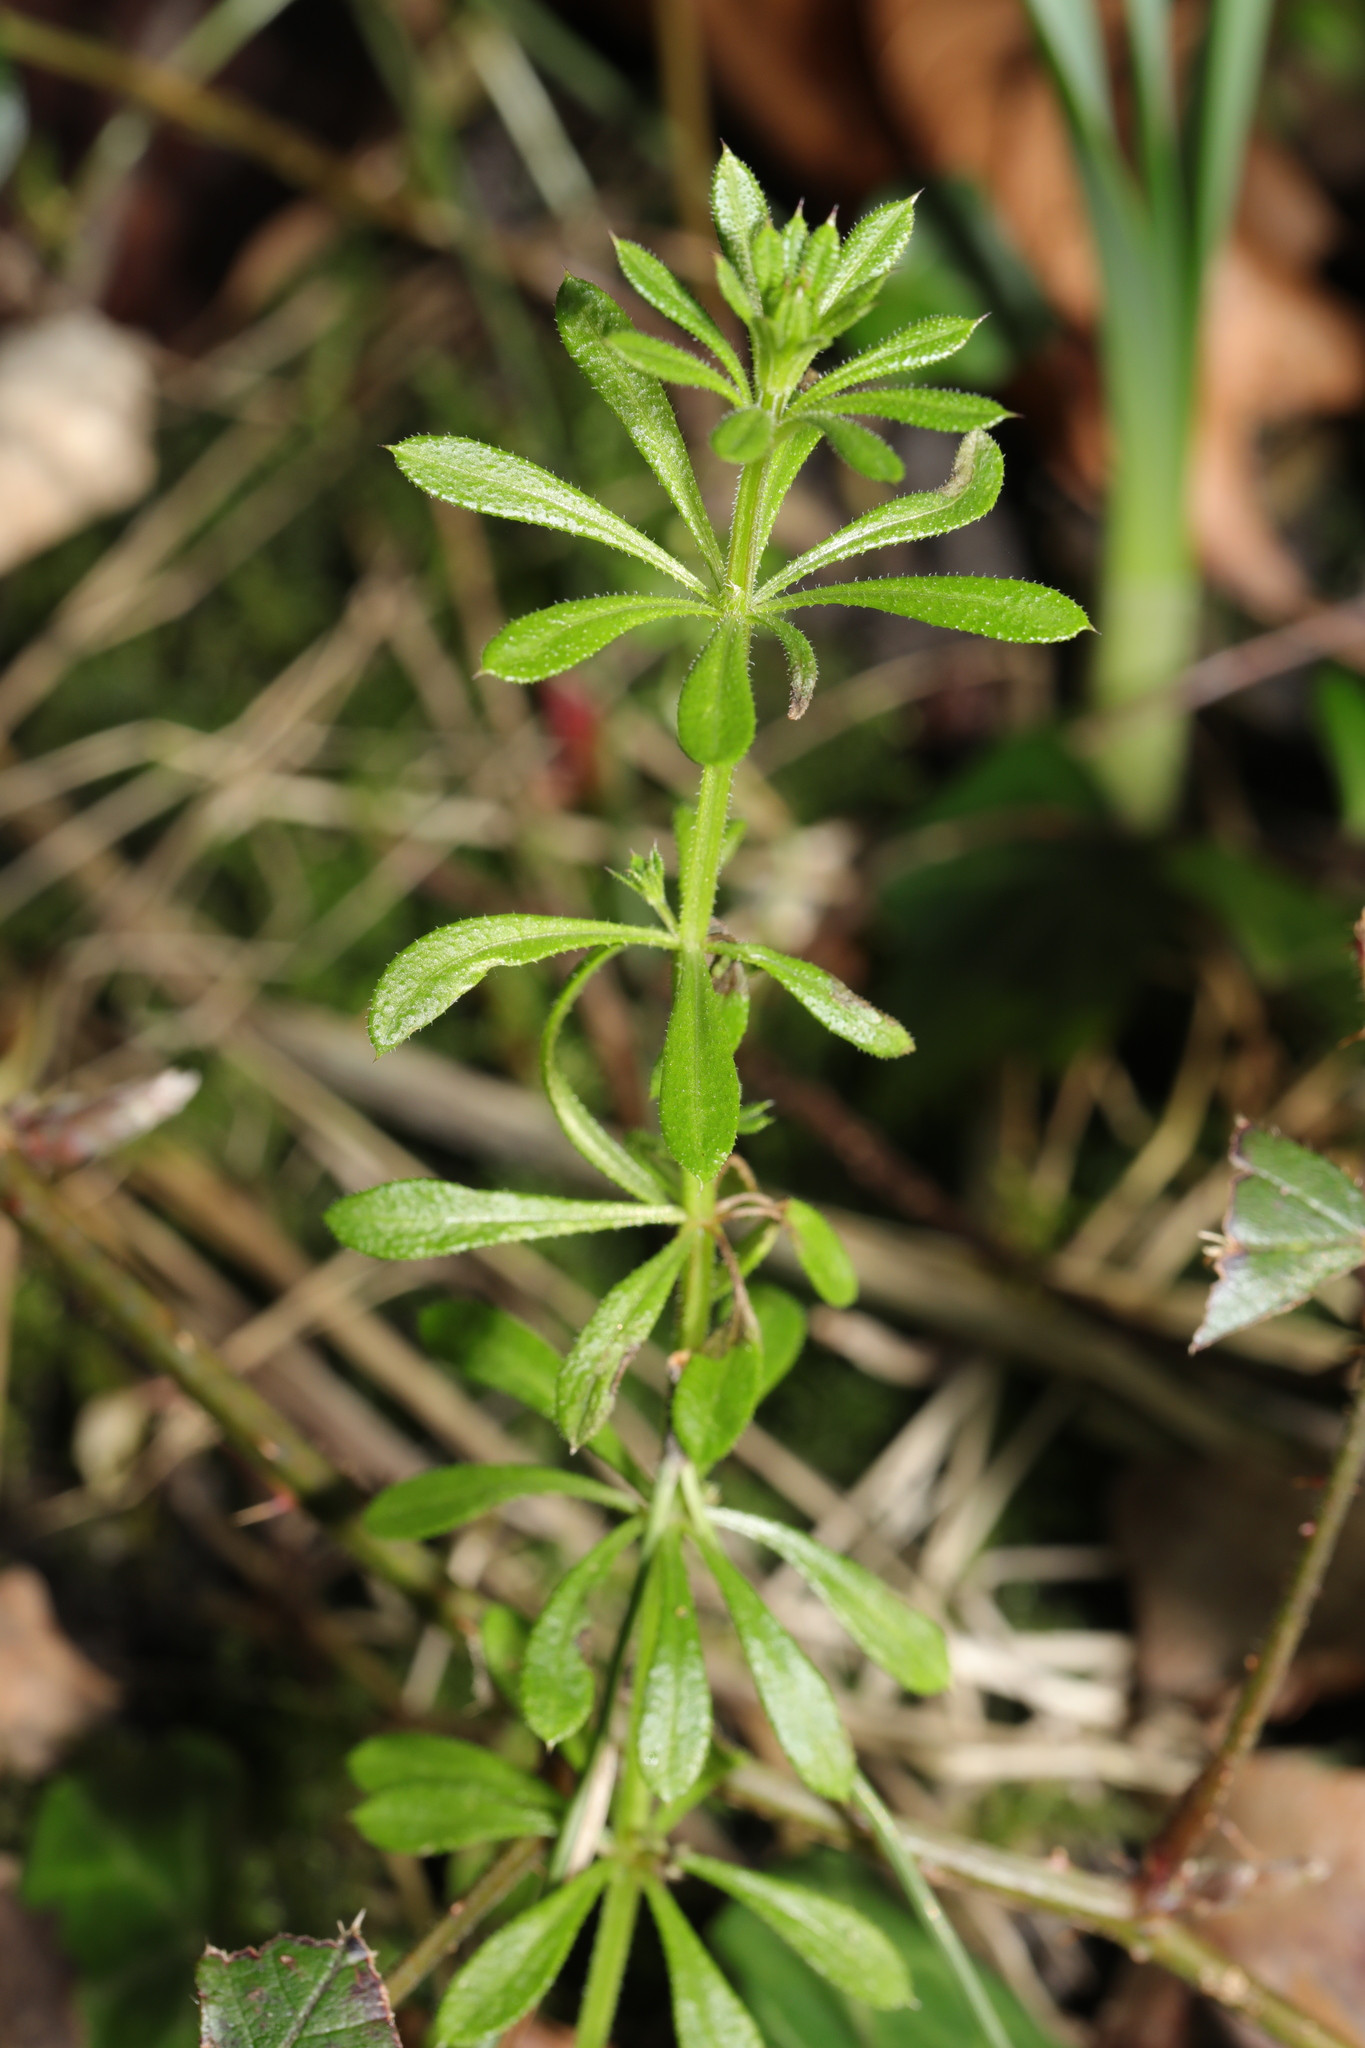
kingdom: Plantae
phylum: Tracheophyta
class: Magnoliopsida
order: Gentianales
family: Rubiaceae
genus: Galium
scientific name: Galium aparine
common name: Cleavers
